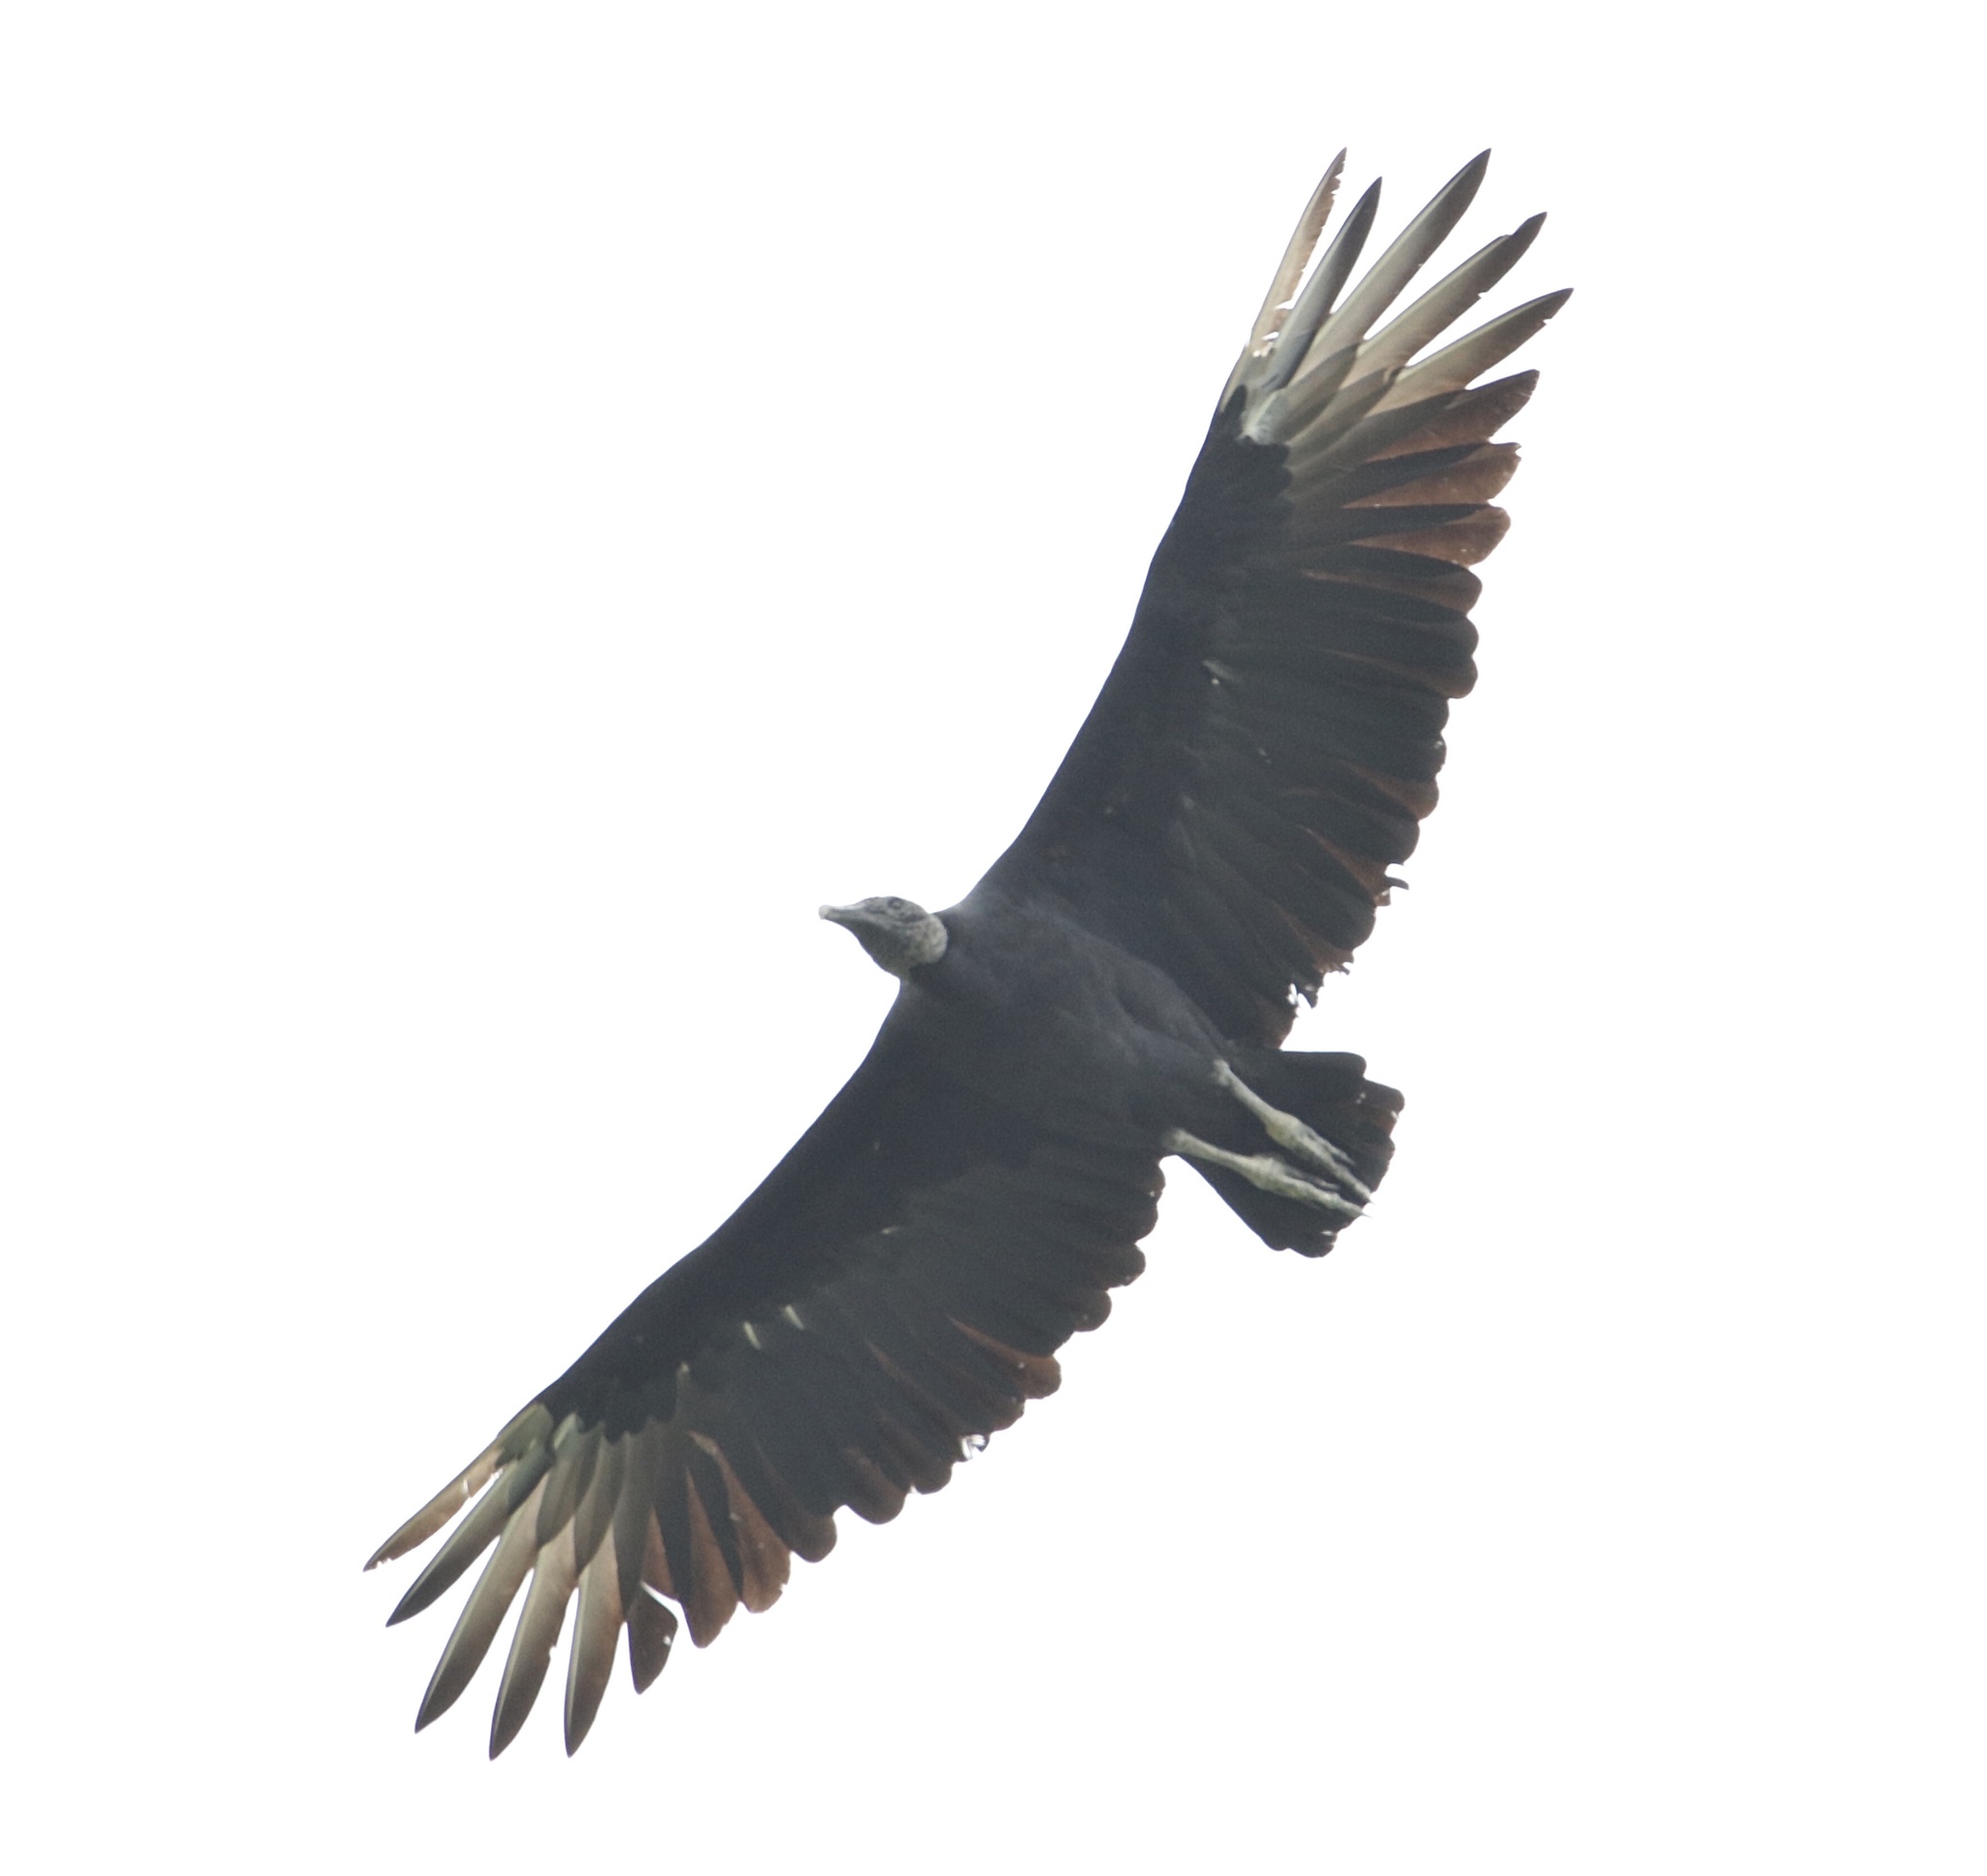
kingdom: Animalia
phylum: Chordata
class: Aves
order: Accipitriformes
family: Cathartidae
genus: Coragyps
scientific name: Coragyps atratus
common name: Black vulture
